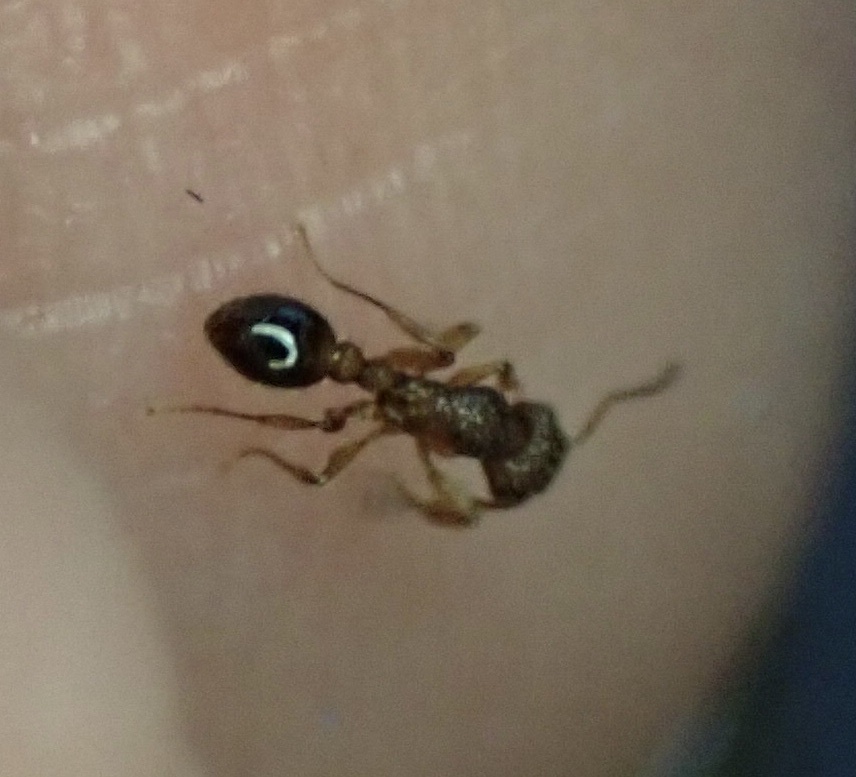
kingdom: Animalia
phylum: Arthropoda
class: Insecta
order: Hymenoptera
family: Formicidae
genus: Tetramorium
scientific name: Tetramorium bicarinatum
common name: Guinea ant
